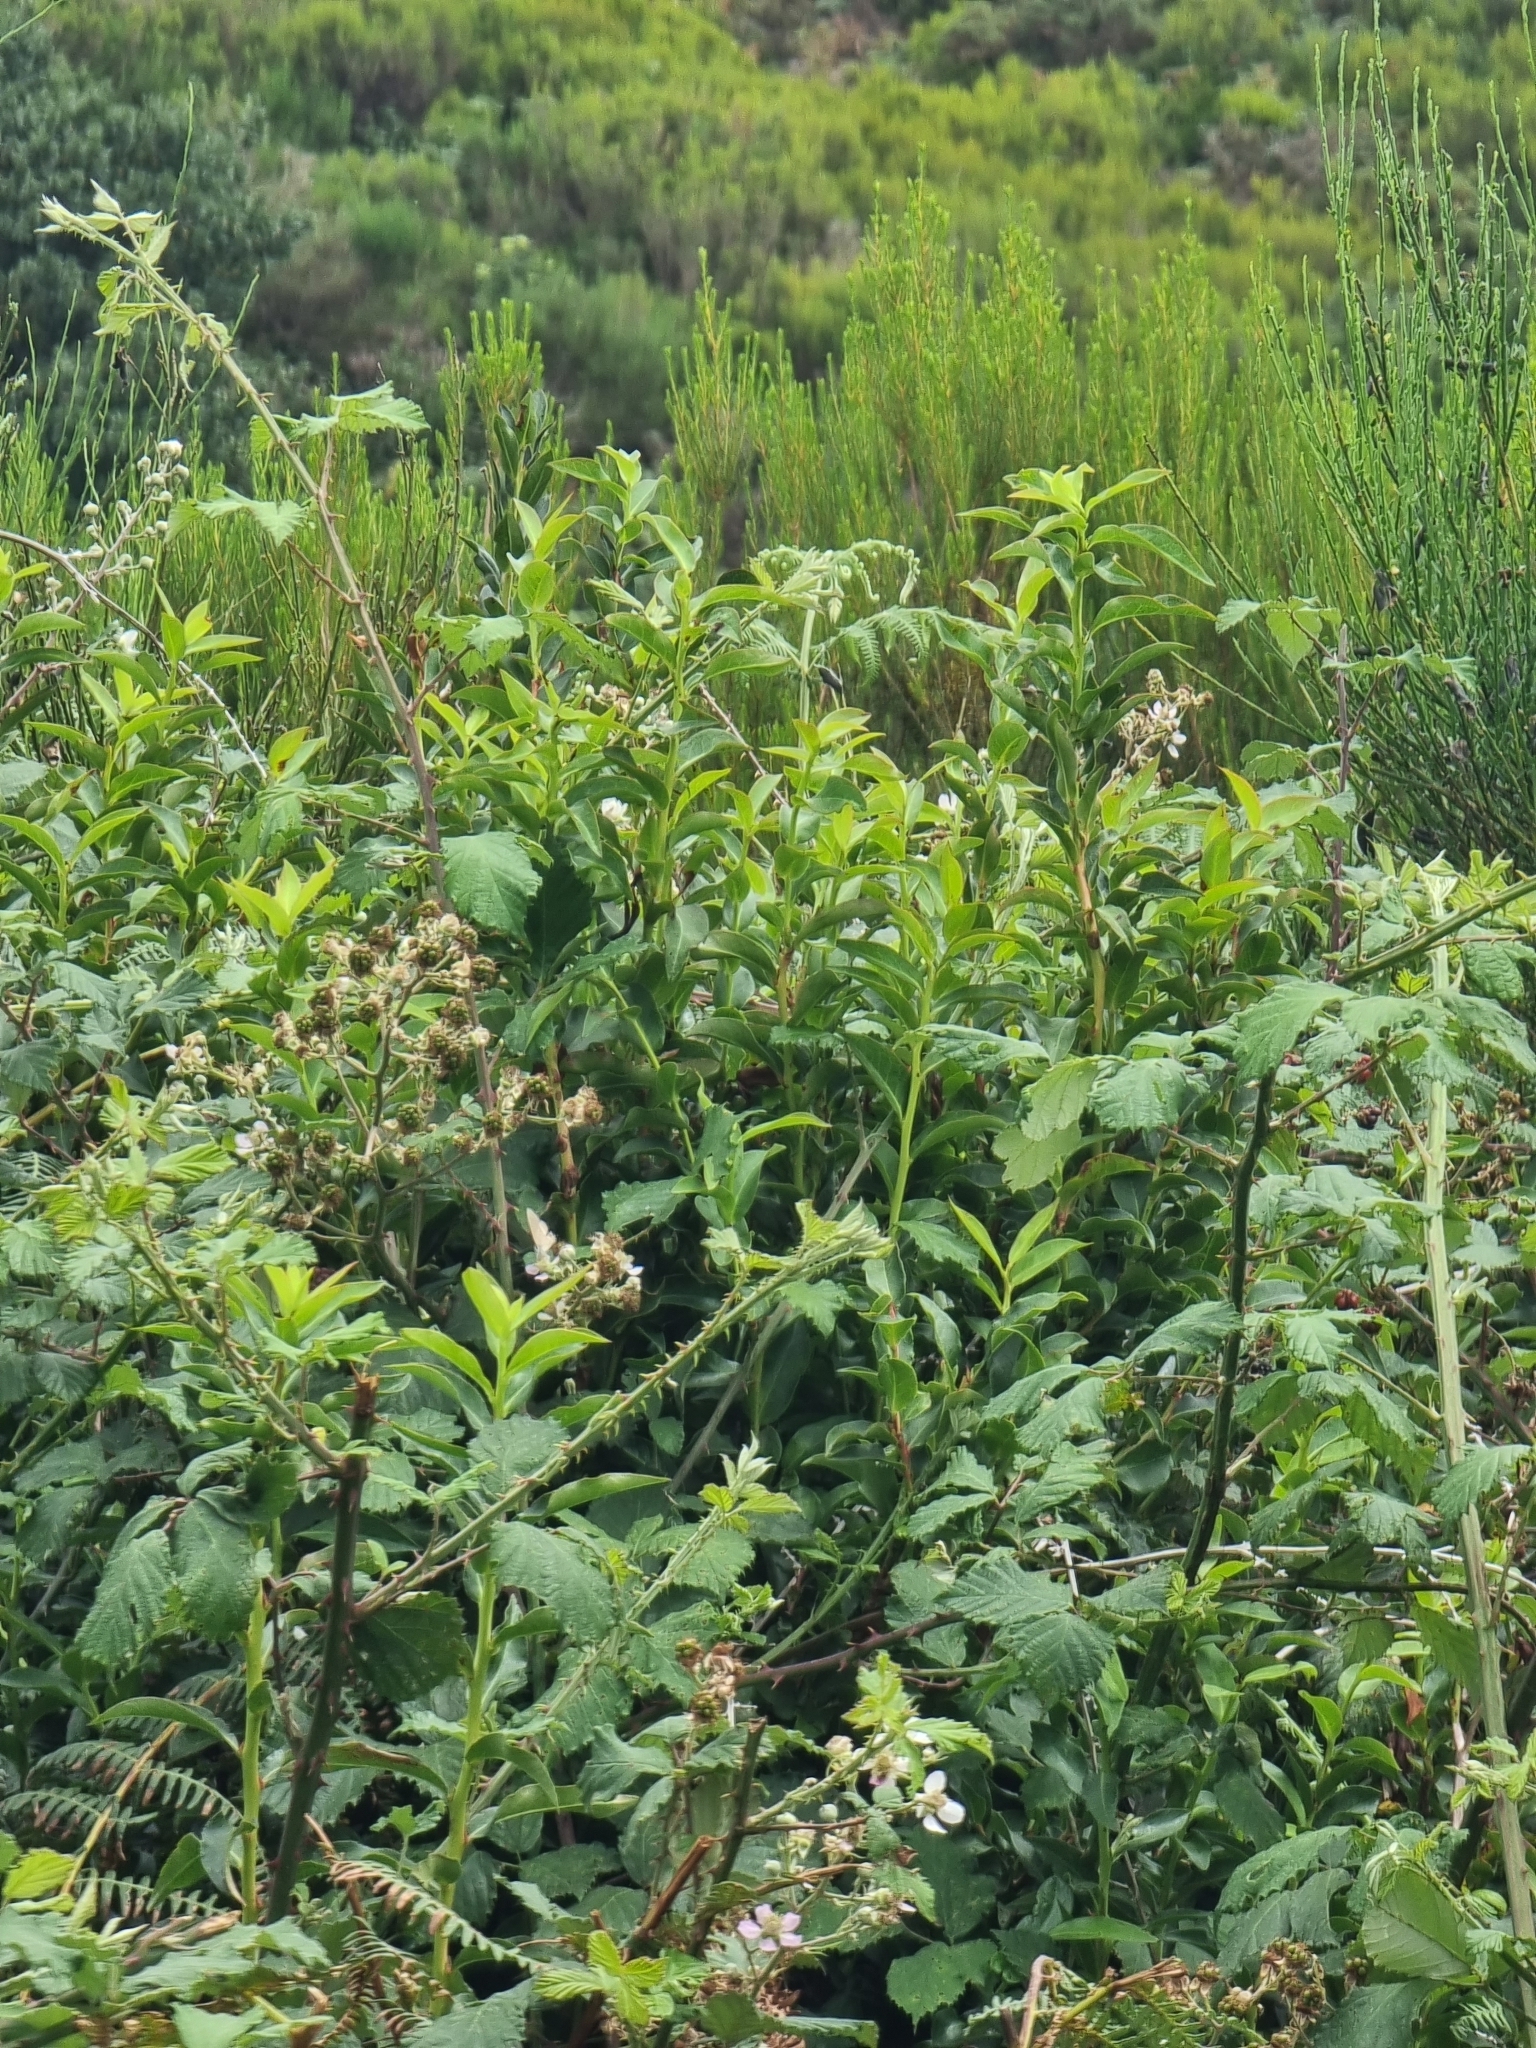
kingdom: Plantae
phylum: Tracheophyta
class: Magnoliopsida
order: Ericales
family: Ericaceae
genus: Vaccinium
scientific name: Vaccinium padifolium
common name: Madeiran blueberry
